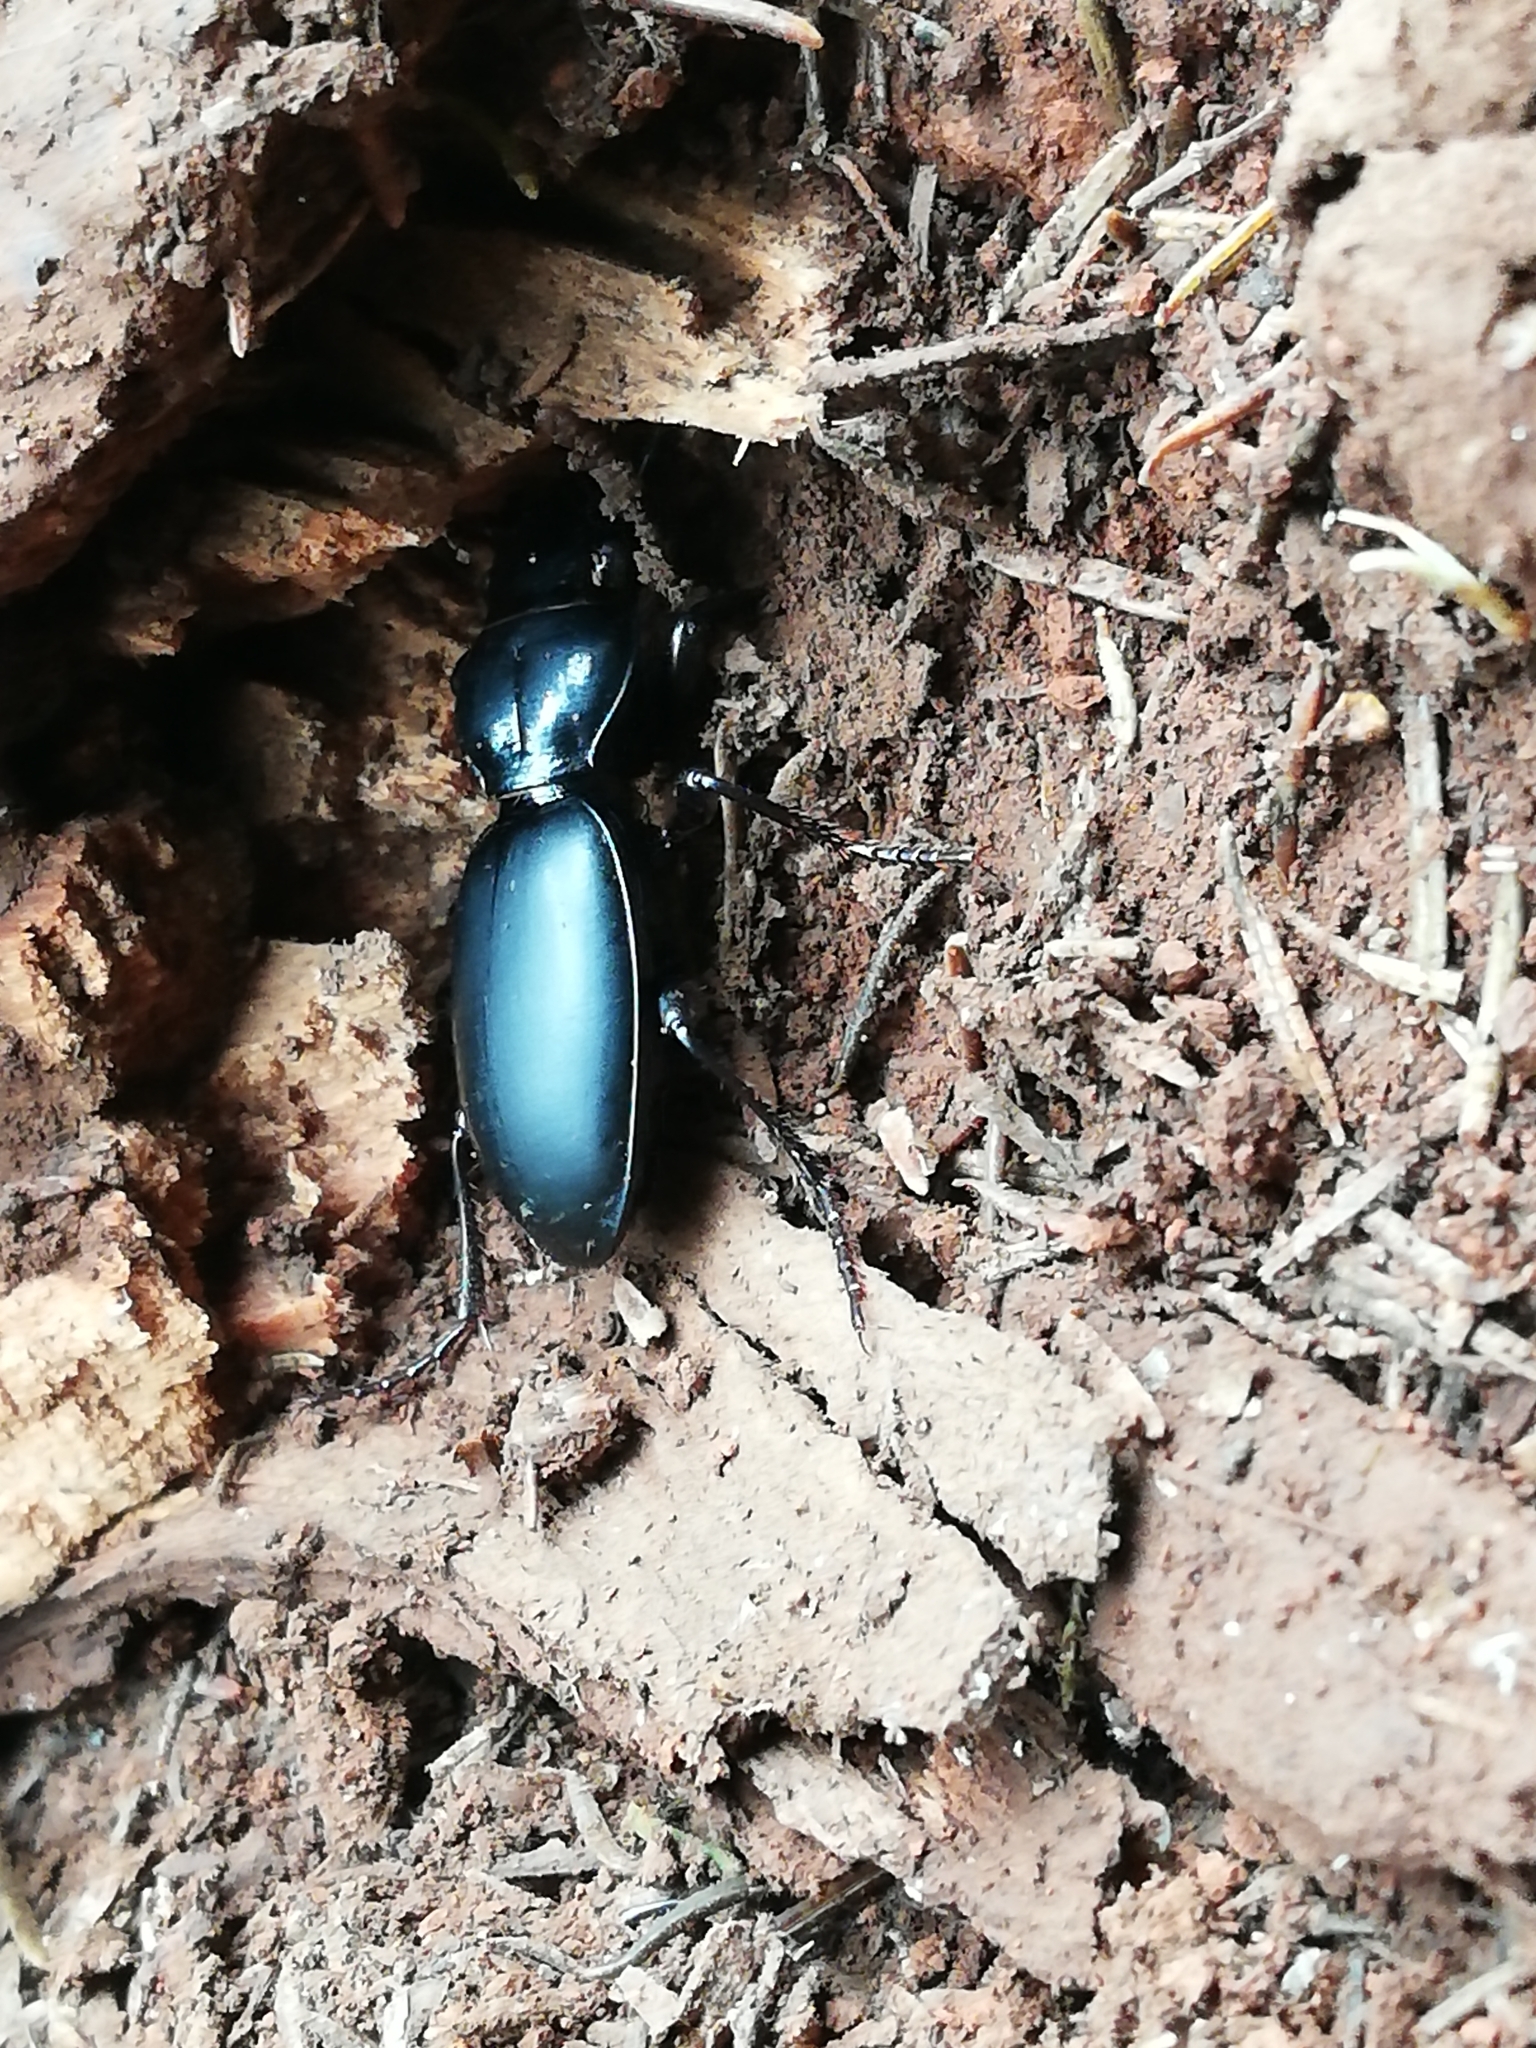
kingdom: Animalia
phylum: Arthropoda
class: Insecta
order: Coleoptera
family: Carabidae
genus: Broscus
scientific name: Broscus crassimargo
